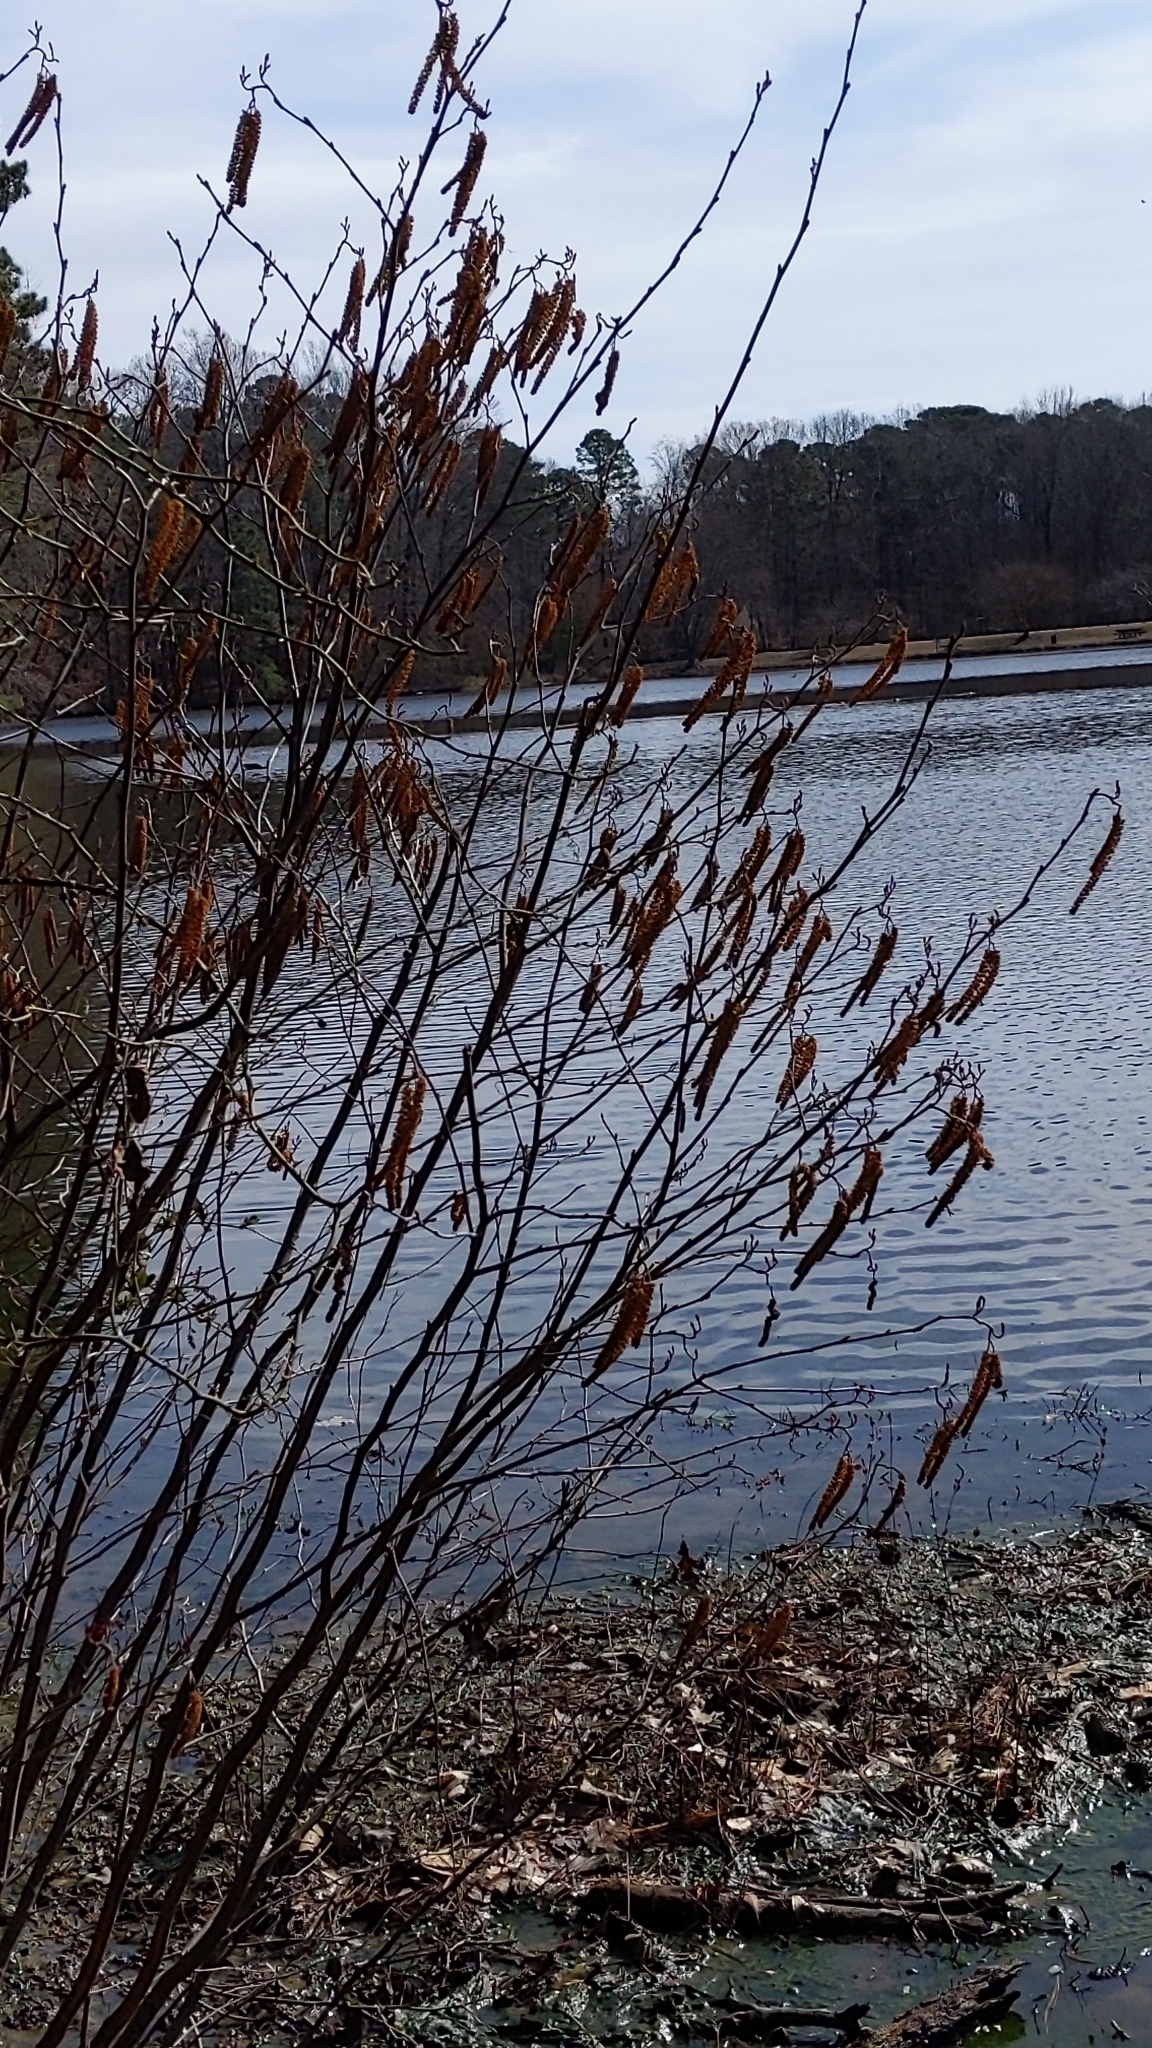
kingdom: Plantae
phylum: Tracheophyta
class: Magnoliopsida
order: Fagales
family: Betulaceae
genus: Alnus
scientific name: Alnus serrulata
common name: Hazel alder
